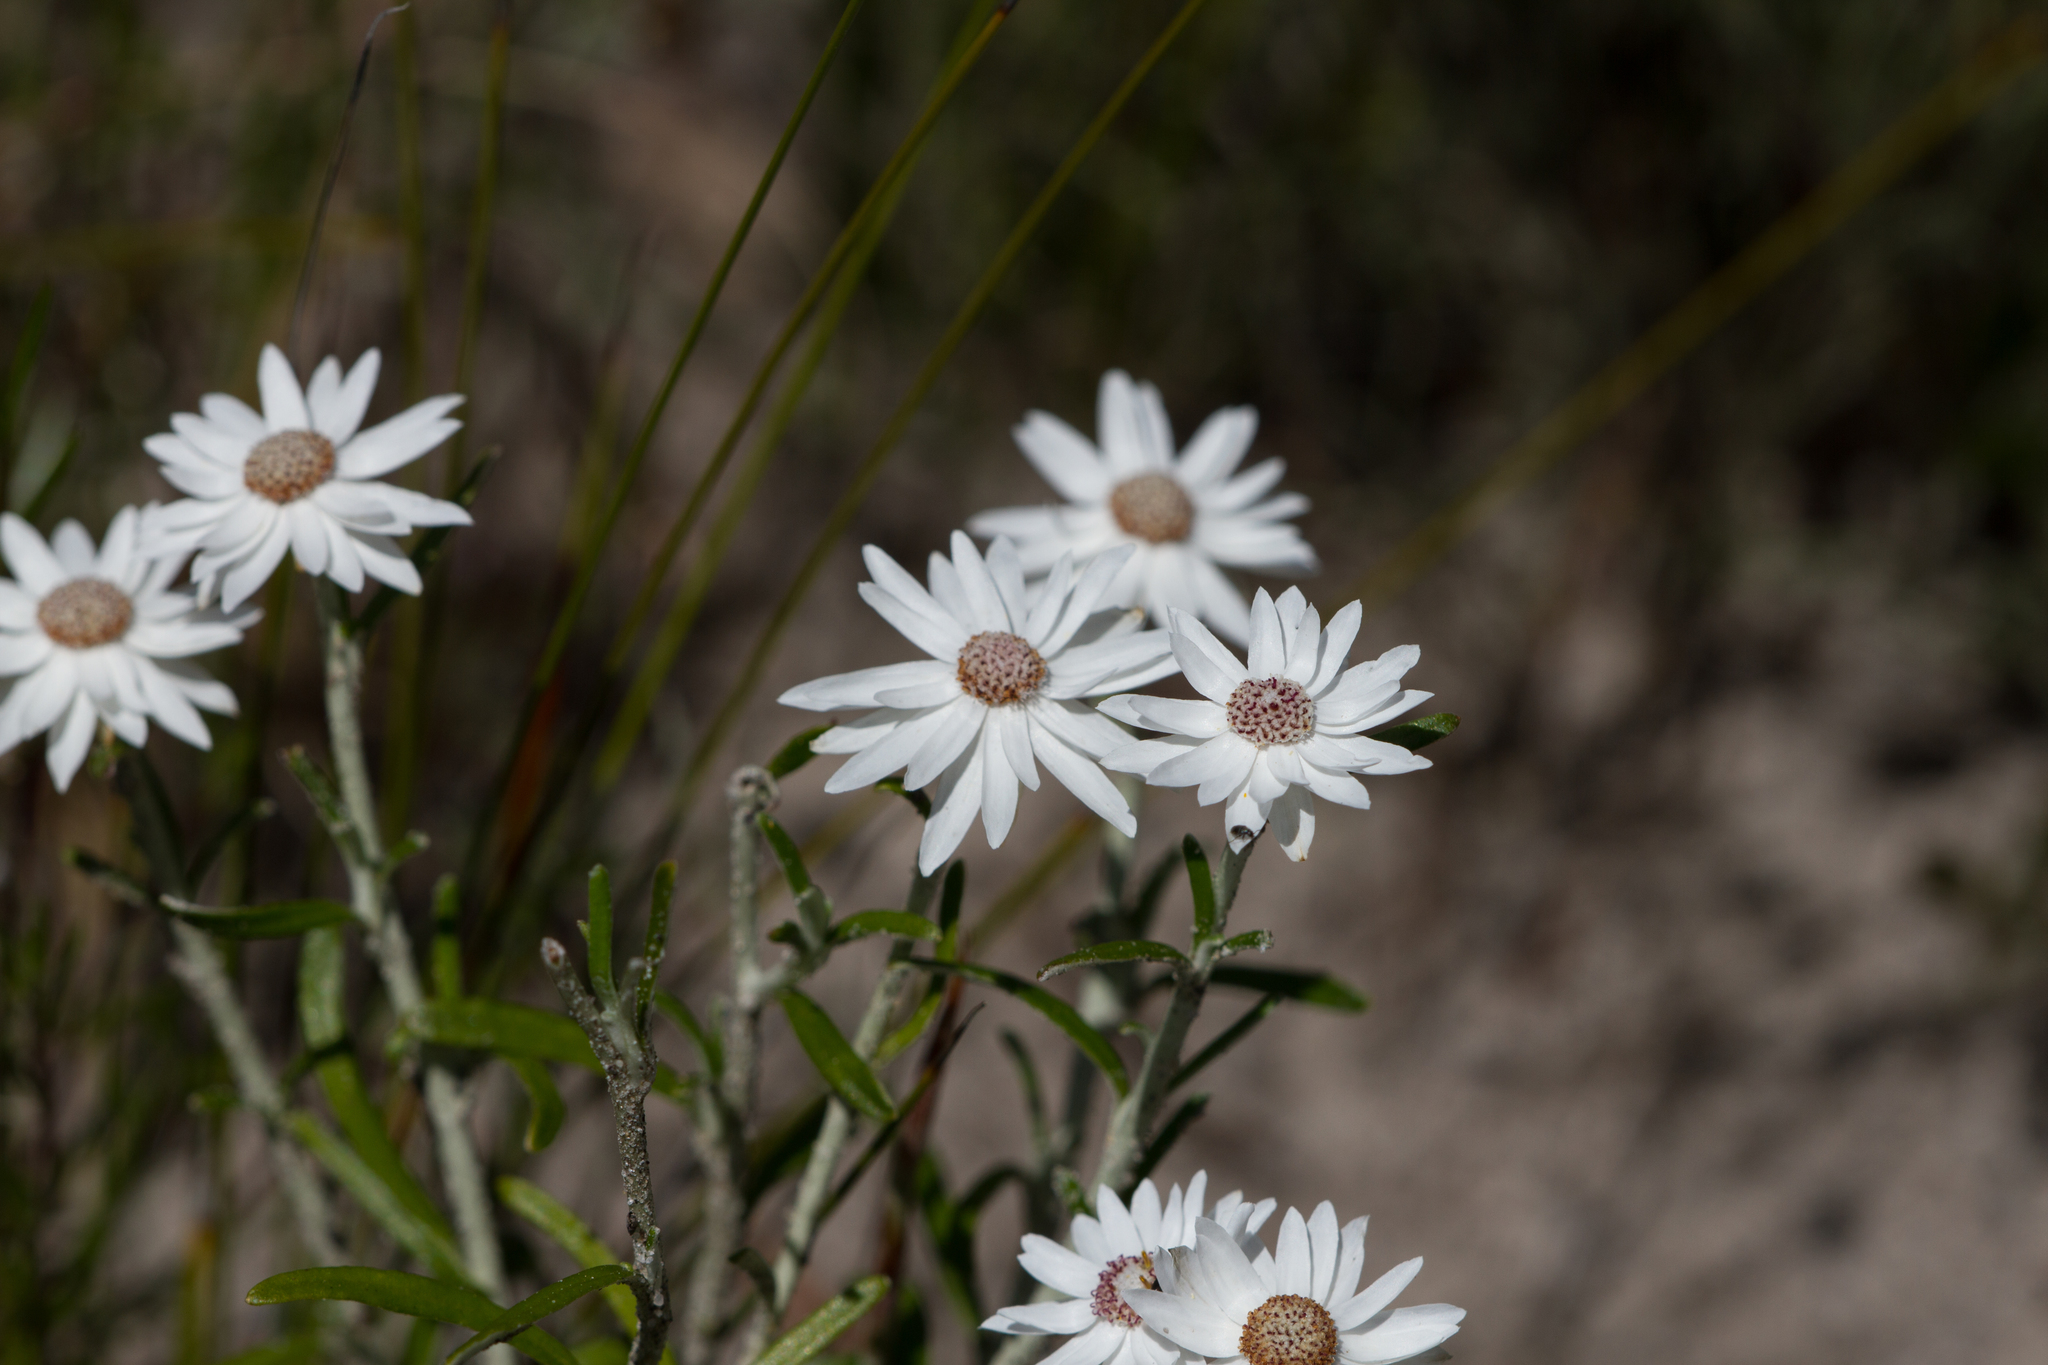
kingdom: Plantae
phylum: Tracheophyta
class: Magnoliopsida
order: Asterales
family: Asteraceae
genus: Argentipallium
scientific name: Argentipallium obtusifolium
